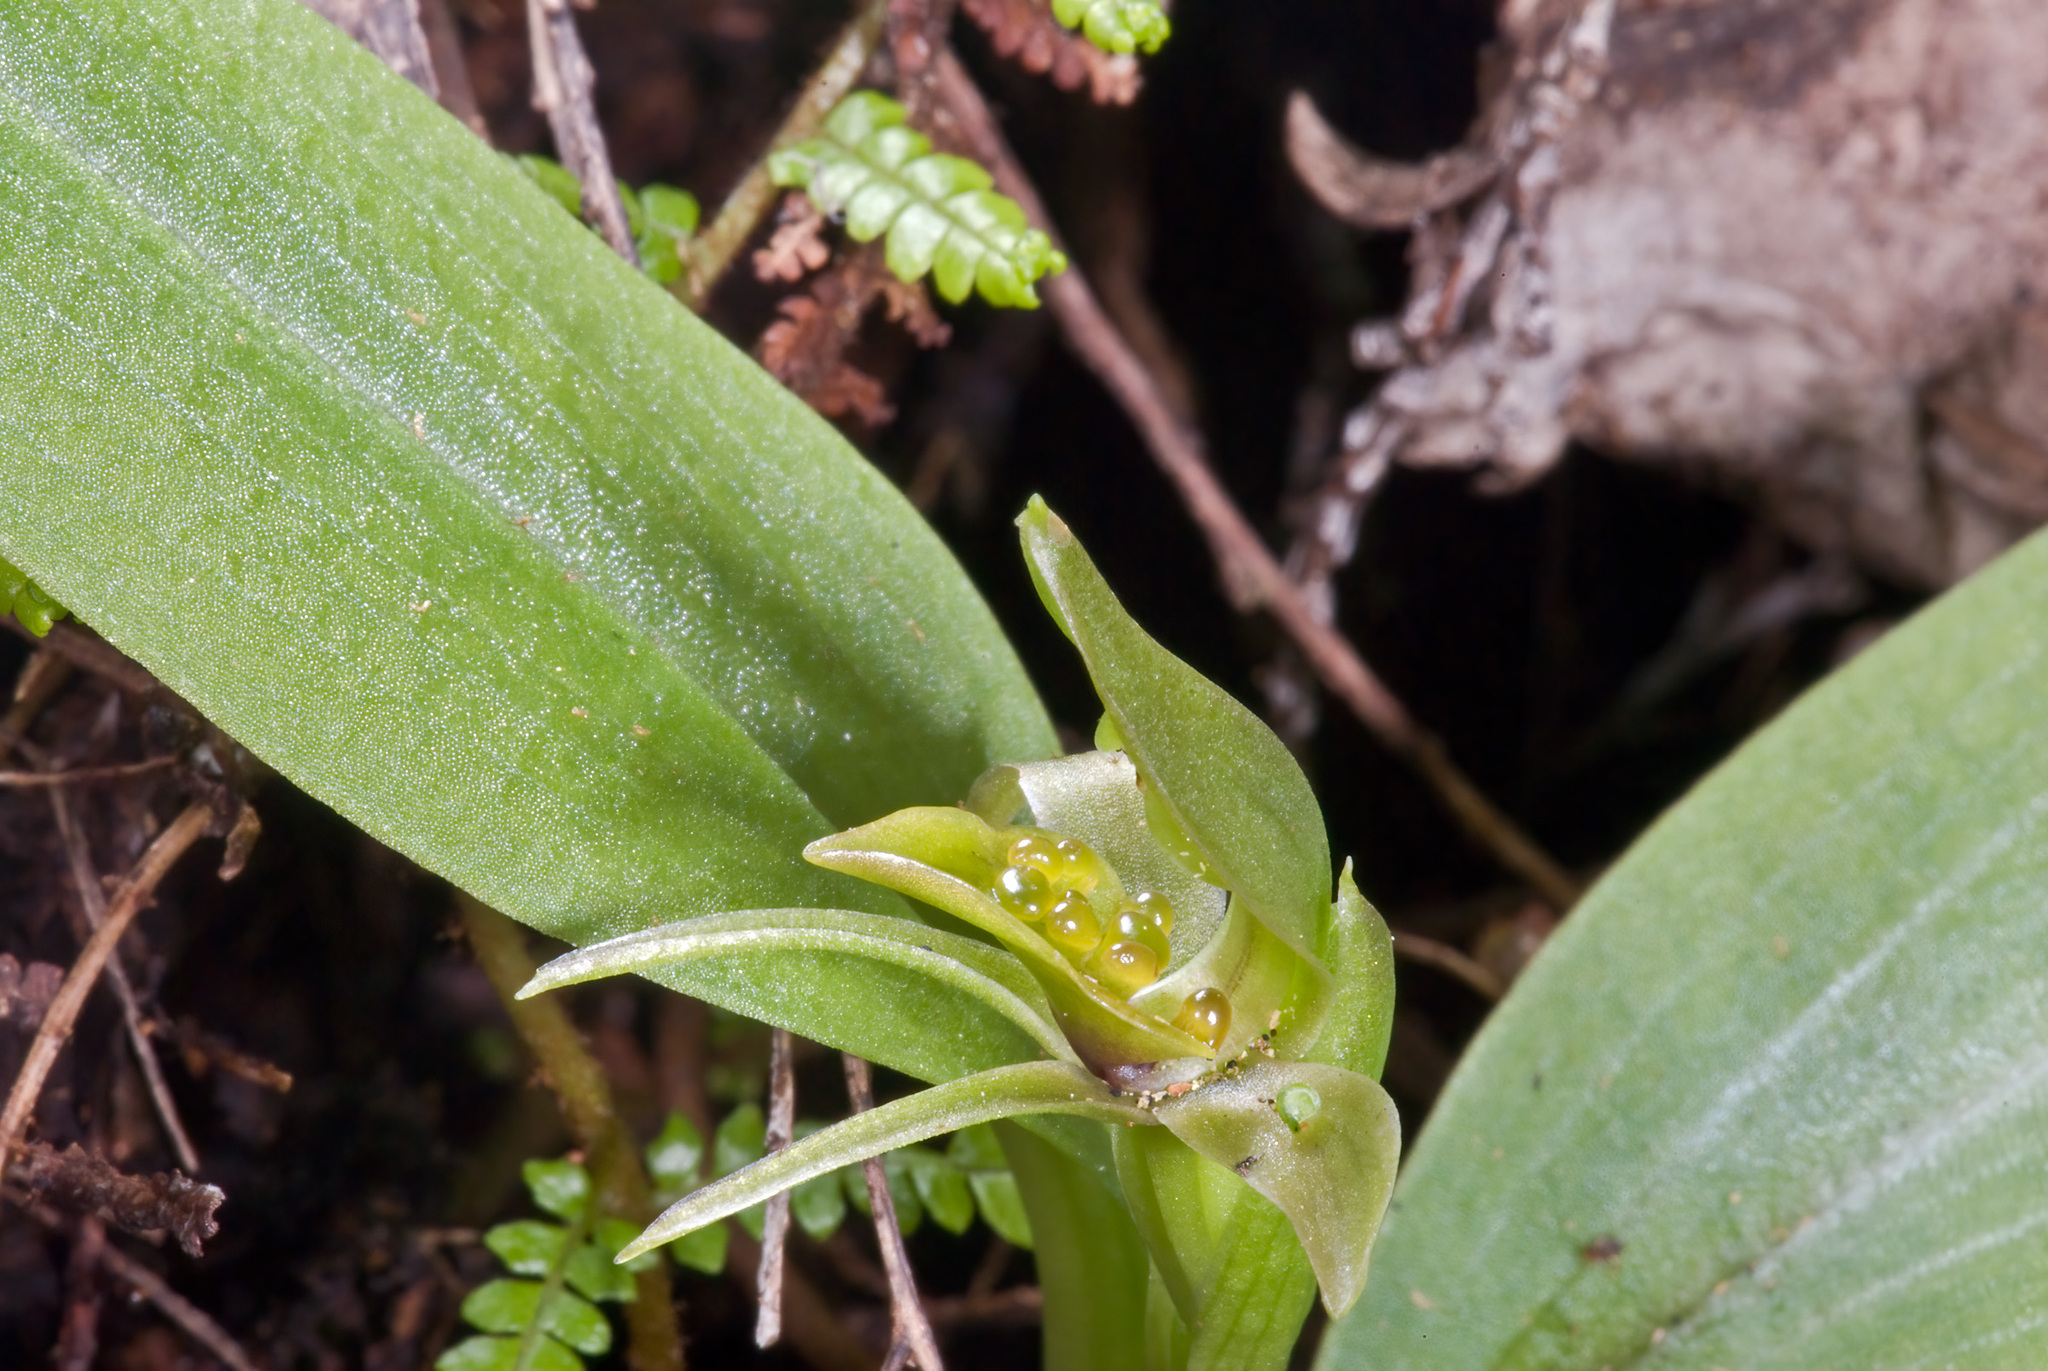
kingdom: Plantae
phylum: Tracheophyta
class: Liliopsida
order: Asparagales
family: Orchidaceae
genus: Chiloglottis
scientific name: Chiloglottis cornuta
